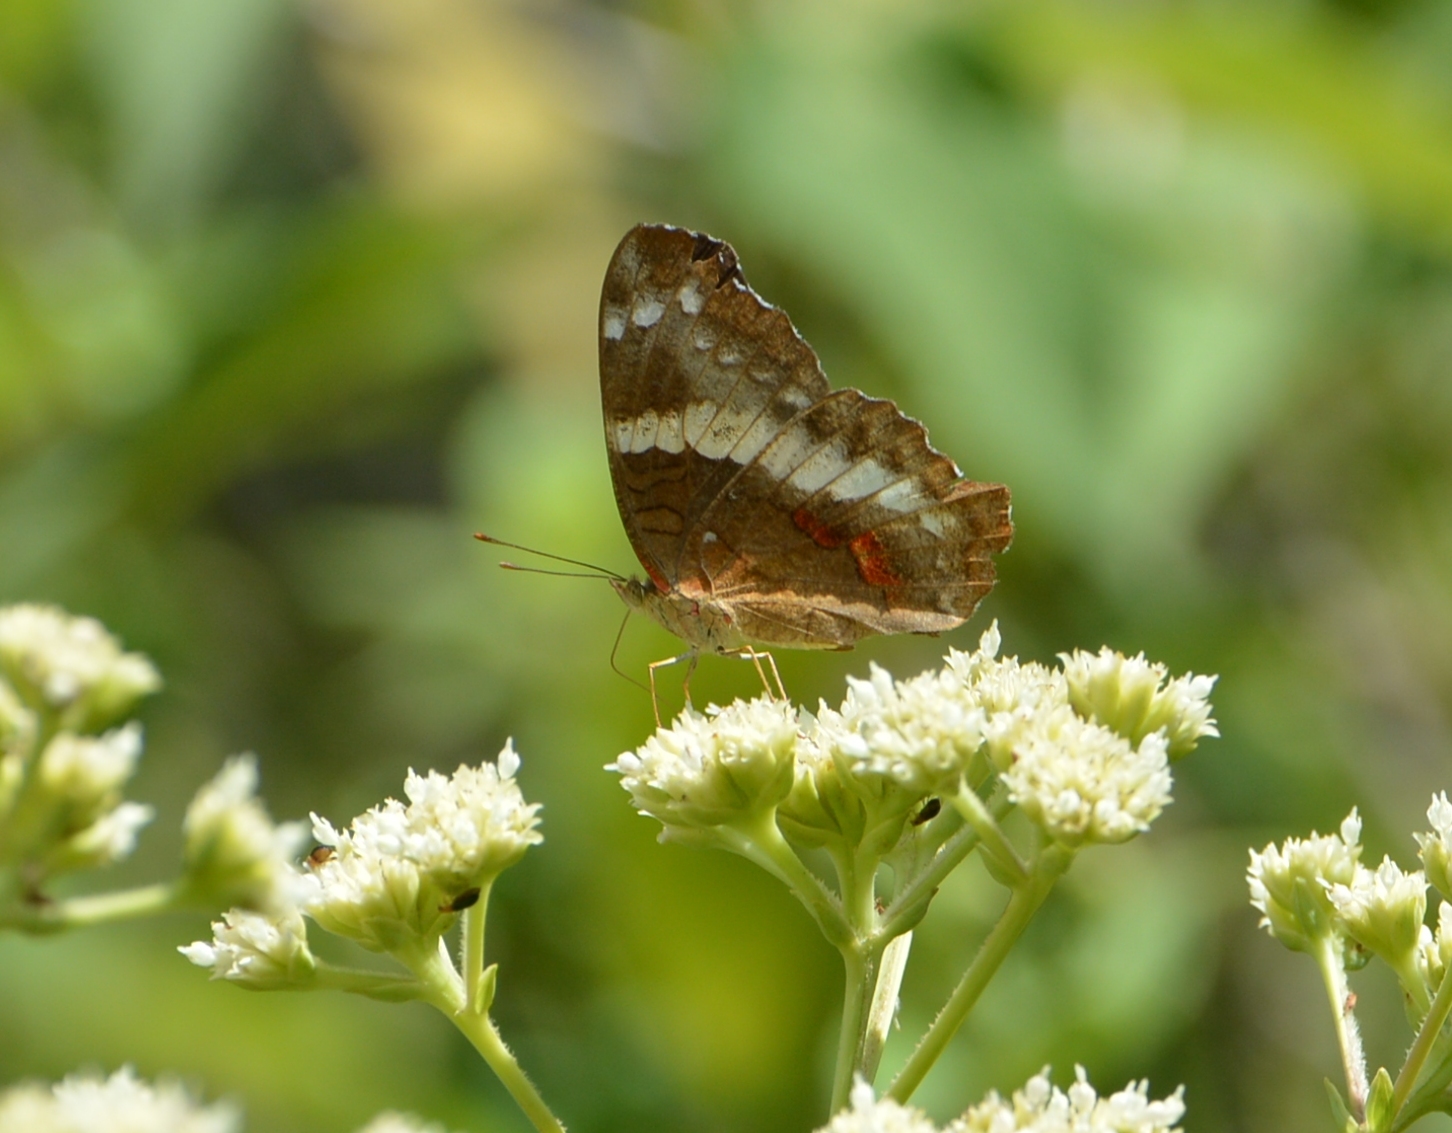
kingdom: Animalia
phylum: Arthropoda
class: Insecta
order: Lepidoptera
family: Nymphalidae
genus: Anartia
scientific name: Anartia fatima
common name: Banded peacock
